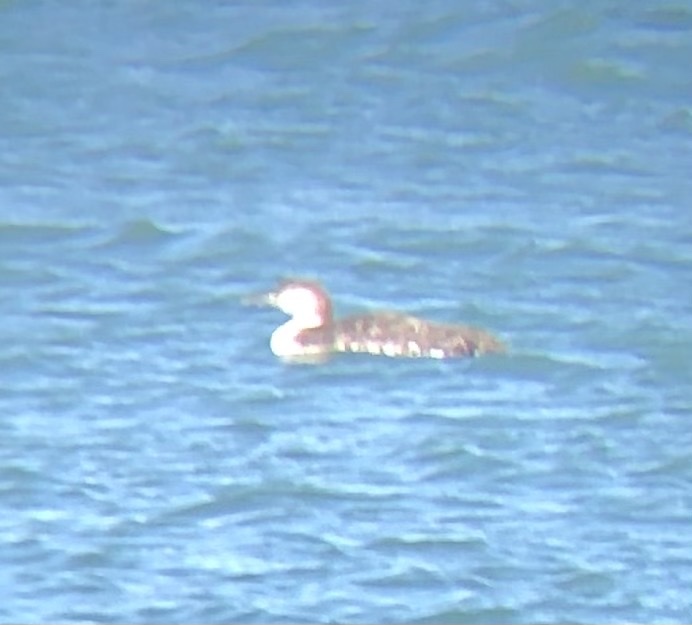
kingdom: Animalia
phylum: Chordata
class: Aves
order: Gaviiformes
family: Gaviidae
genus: Gavia
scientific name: Gavia immer
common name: Common loon
